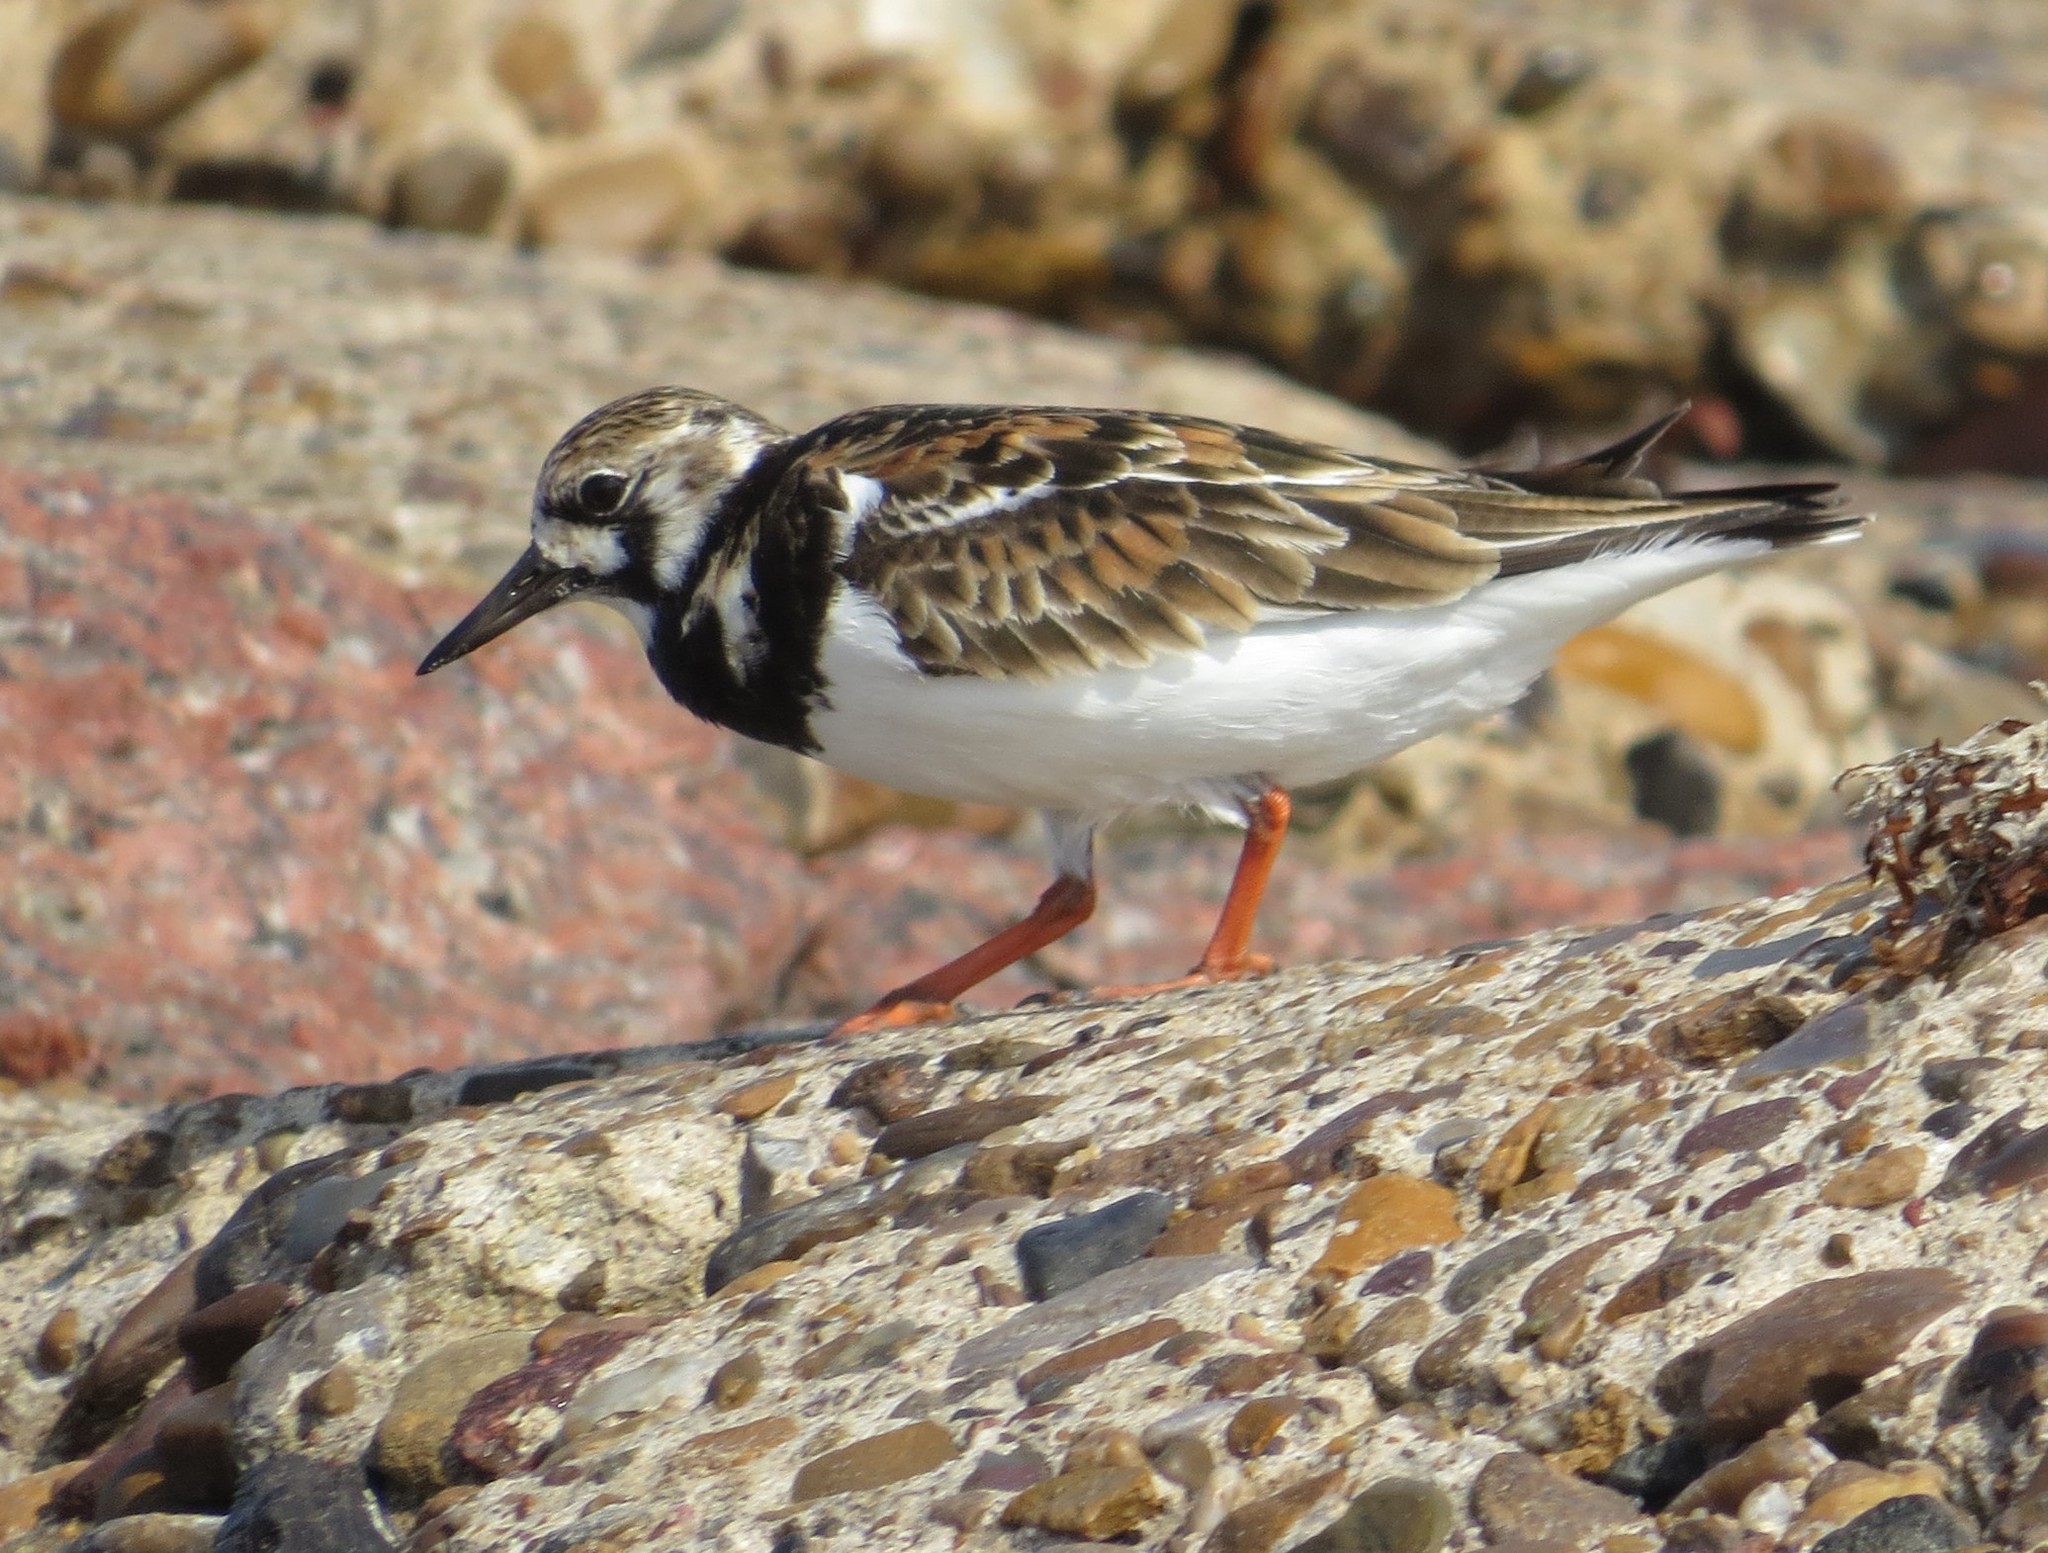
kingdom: Animalia
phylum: Chordata
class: Aves
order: Charadriiformes
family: Scolopacidae
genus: Arenaria
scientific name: Arenaria interpres
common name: Ruddy turnstone
